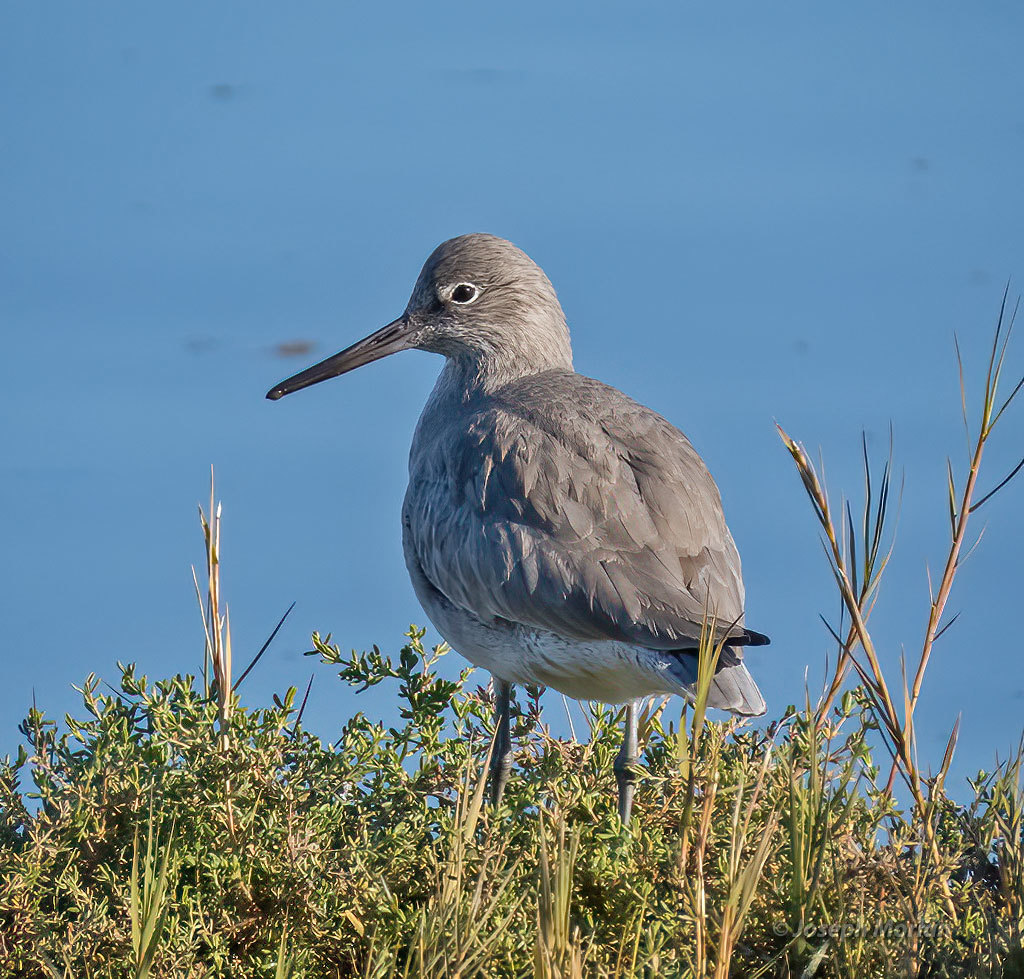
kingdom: Animalia
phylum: Chordata
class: Aves
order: Charadriiformes
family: Scolopacidae
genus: Tringa
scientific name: Tringa semipalmata
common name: Willet
